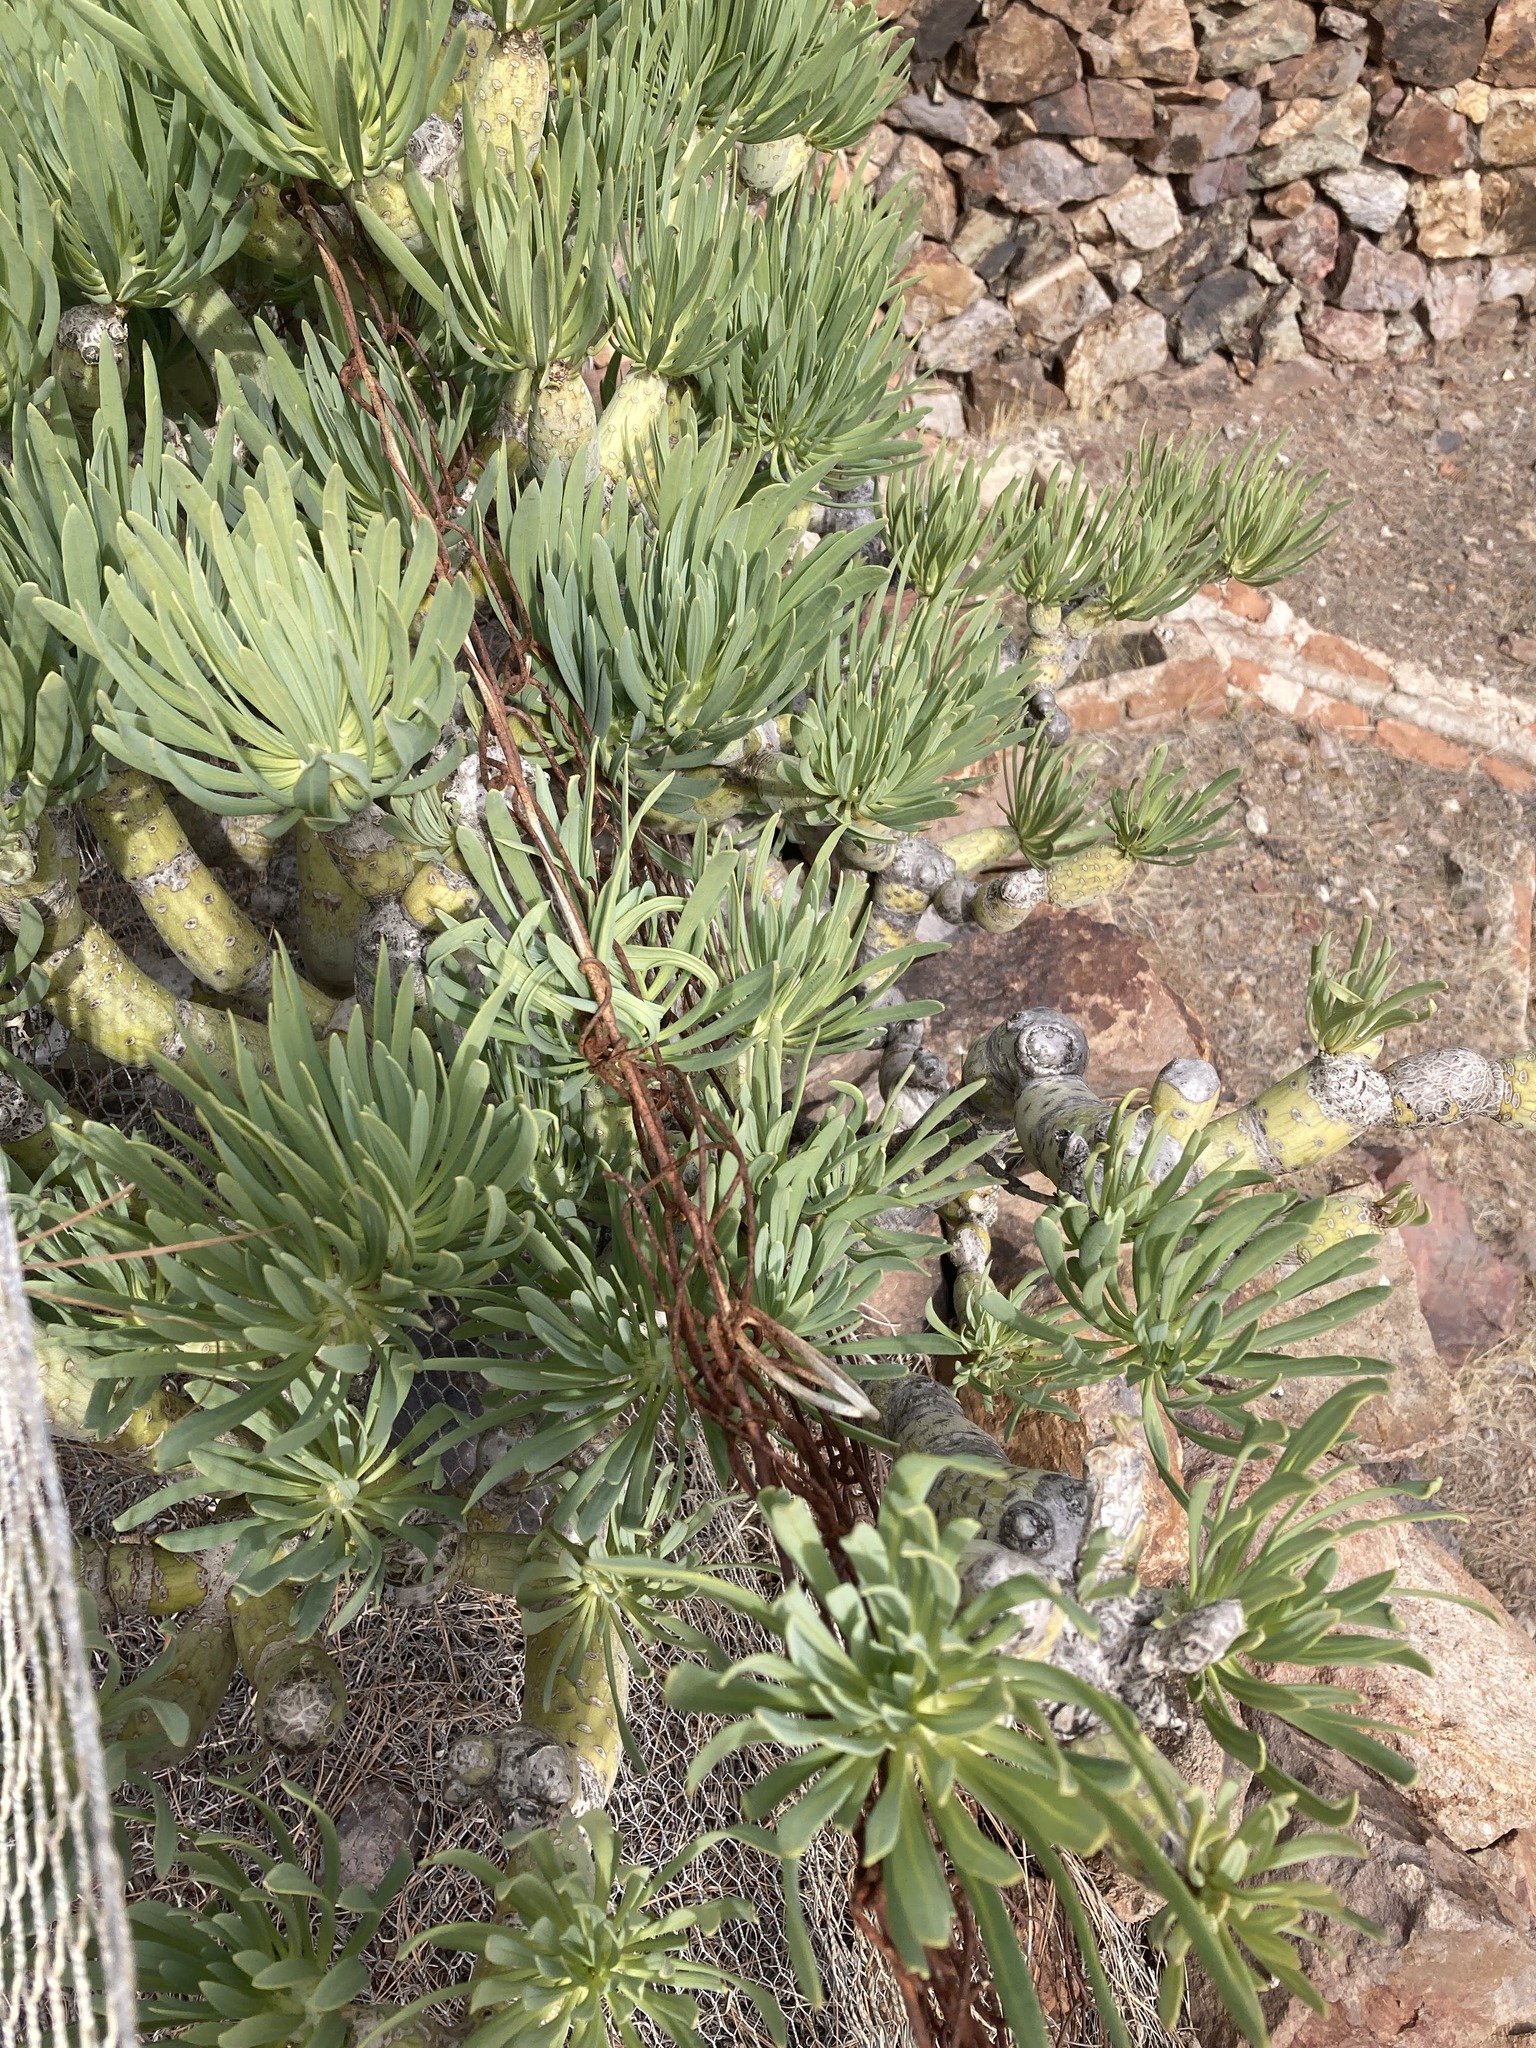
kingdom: Plantae
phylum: Tracheophyta
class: Magnoliopsida
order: Asterales
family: Asteraceae
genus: Kleinia
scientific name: Kleinia neriifolia
